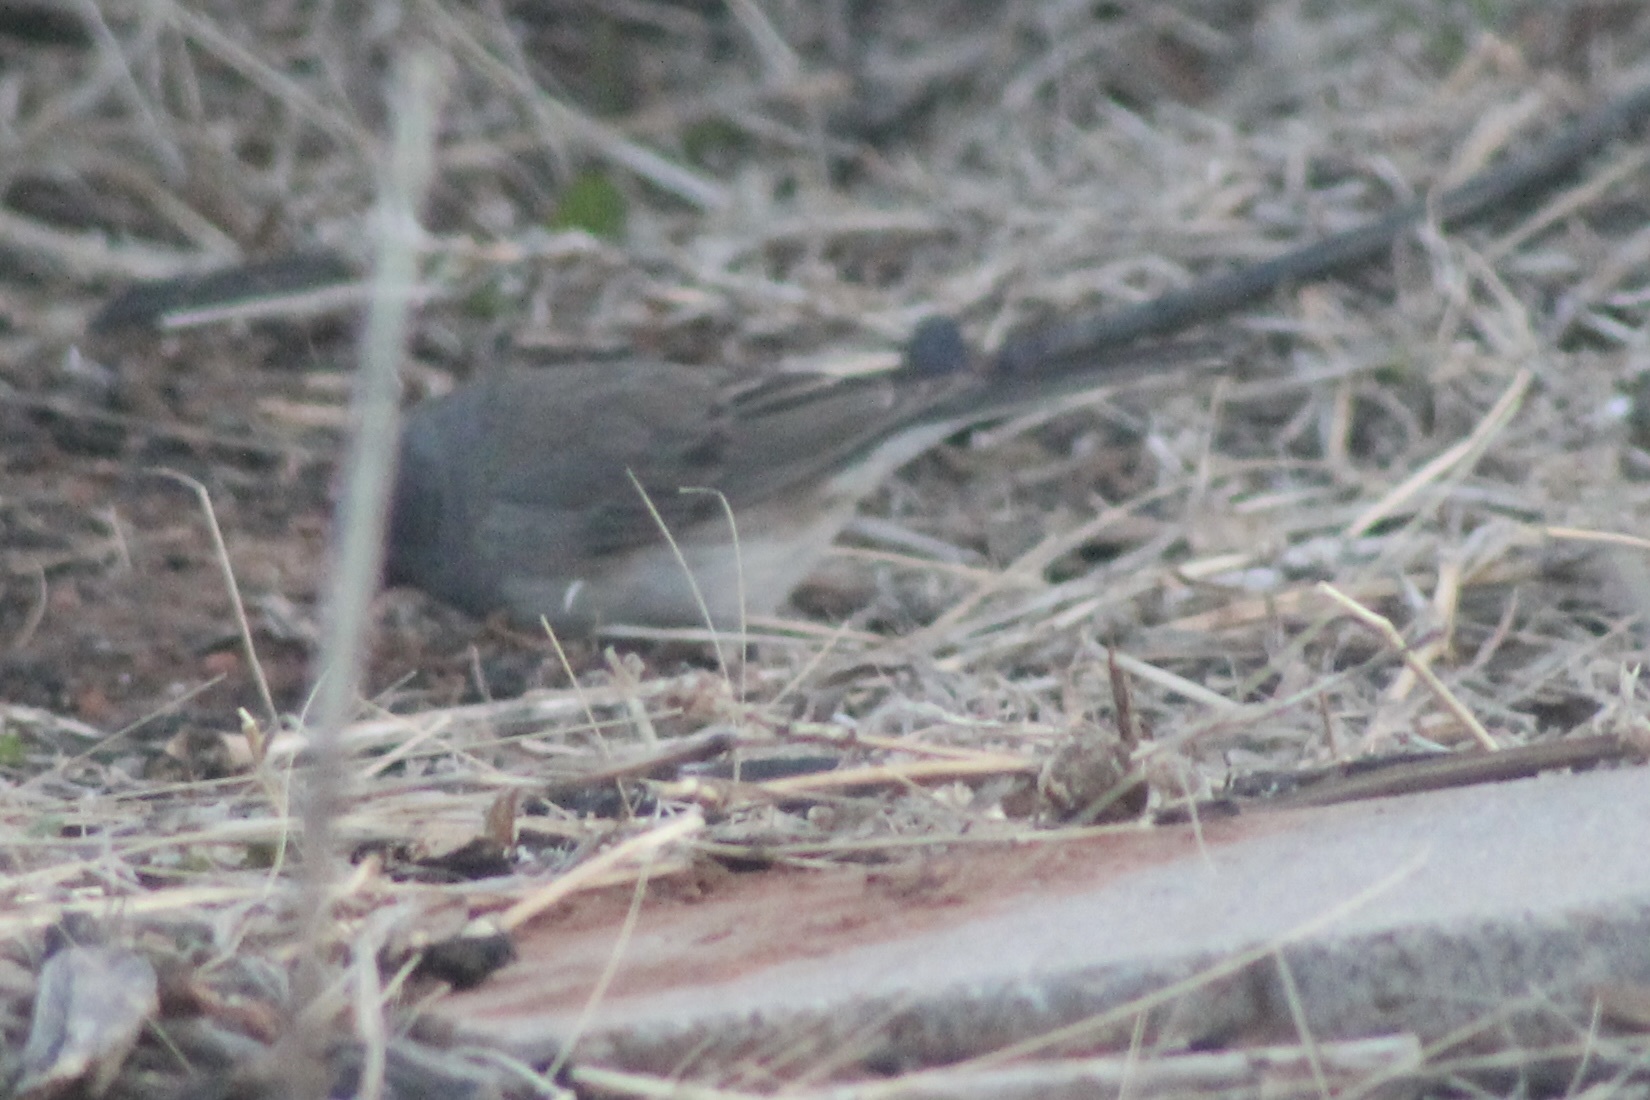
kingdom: Animalia
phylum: Chordata
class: Aves
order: Passeriformes
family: Passerellidae
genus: Junco
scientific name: Junco hyemalis
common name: Dark-eyed junco
